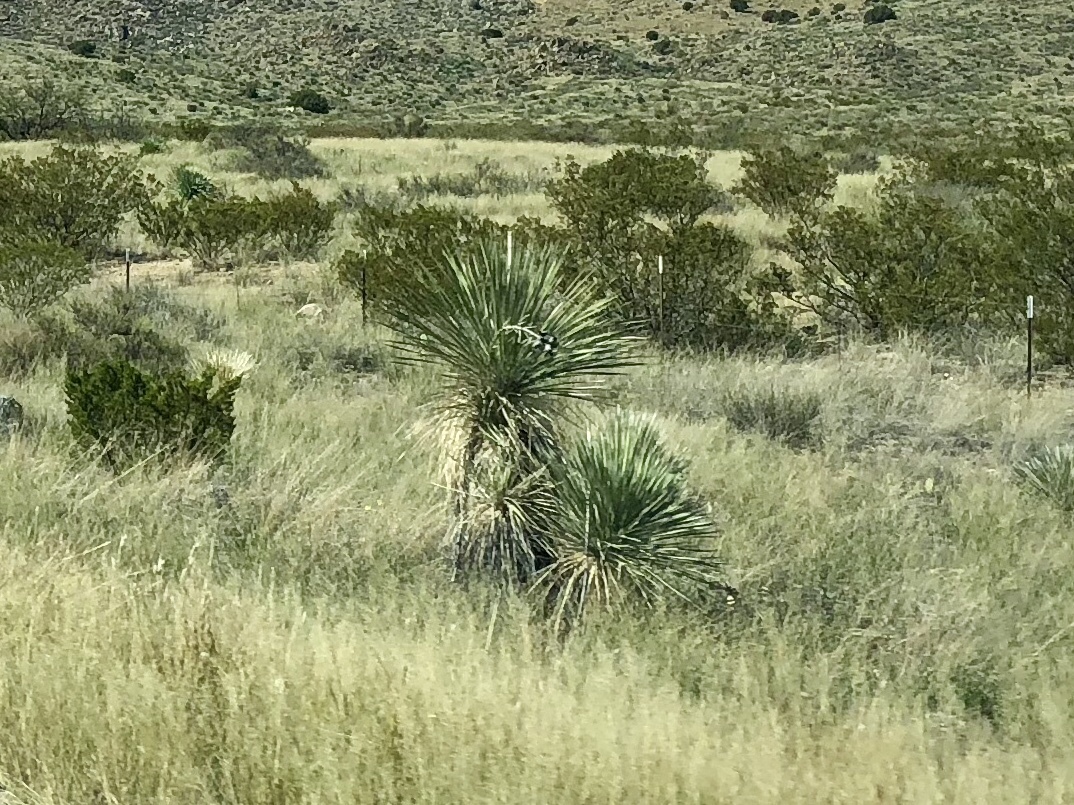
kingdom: Plantae
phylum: Tracheophyta
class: Liliopsida
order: Asparagales
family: Asparagaceae
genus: Yucca
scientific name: Yucca elata
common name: Palmella
